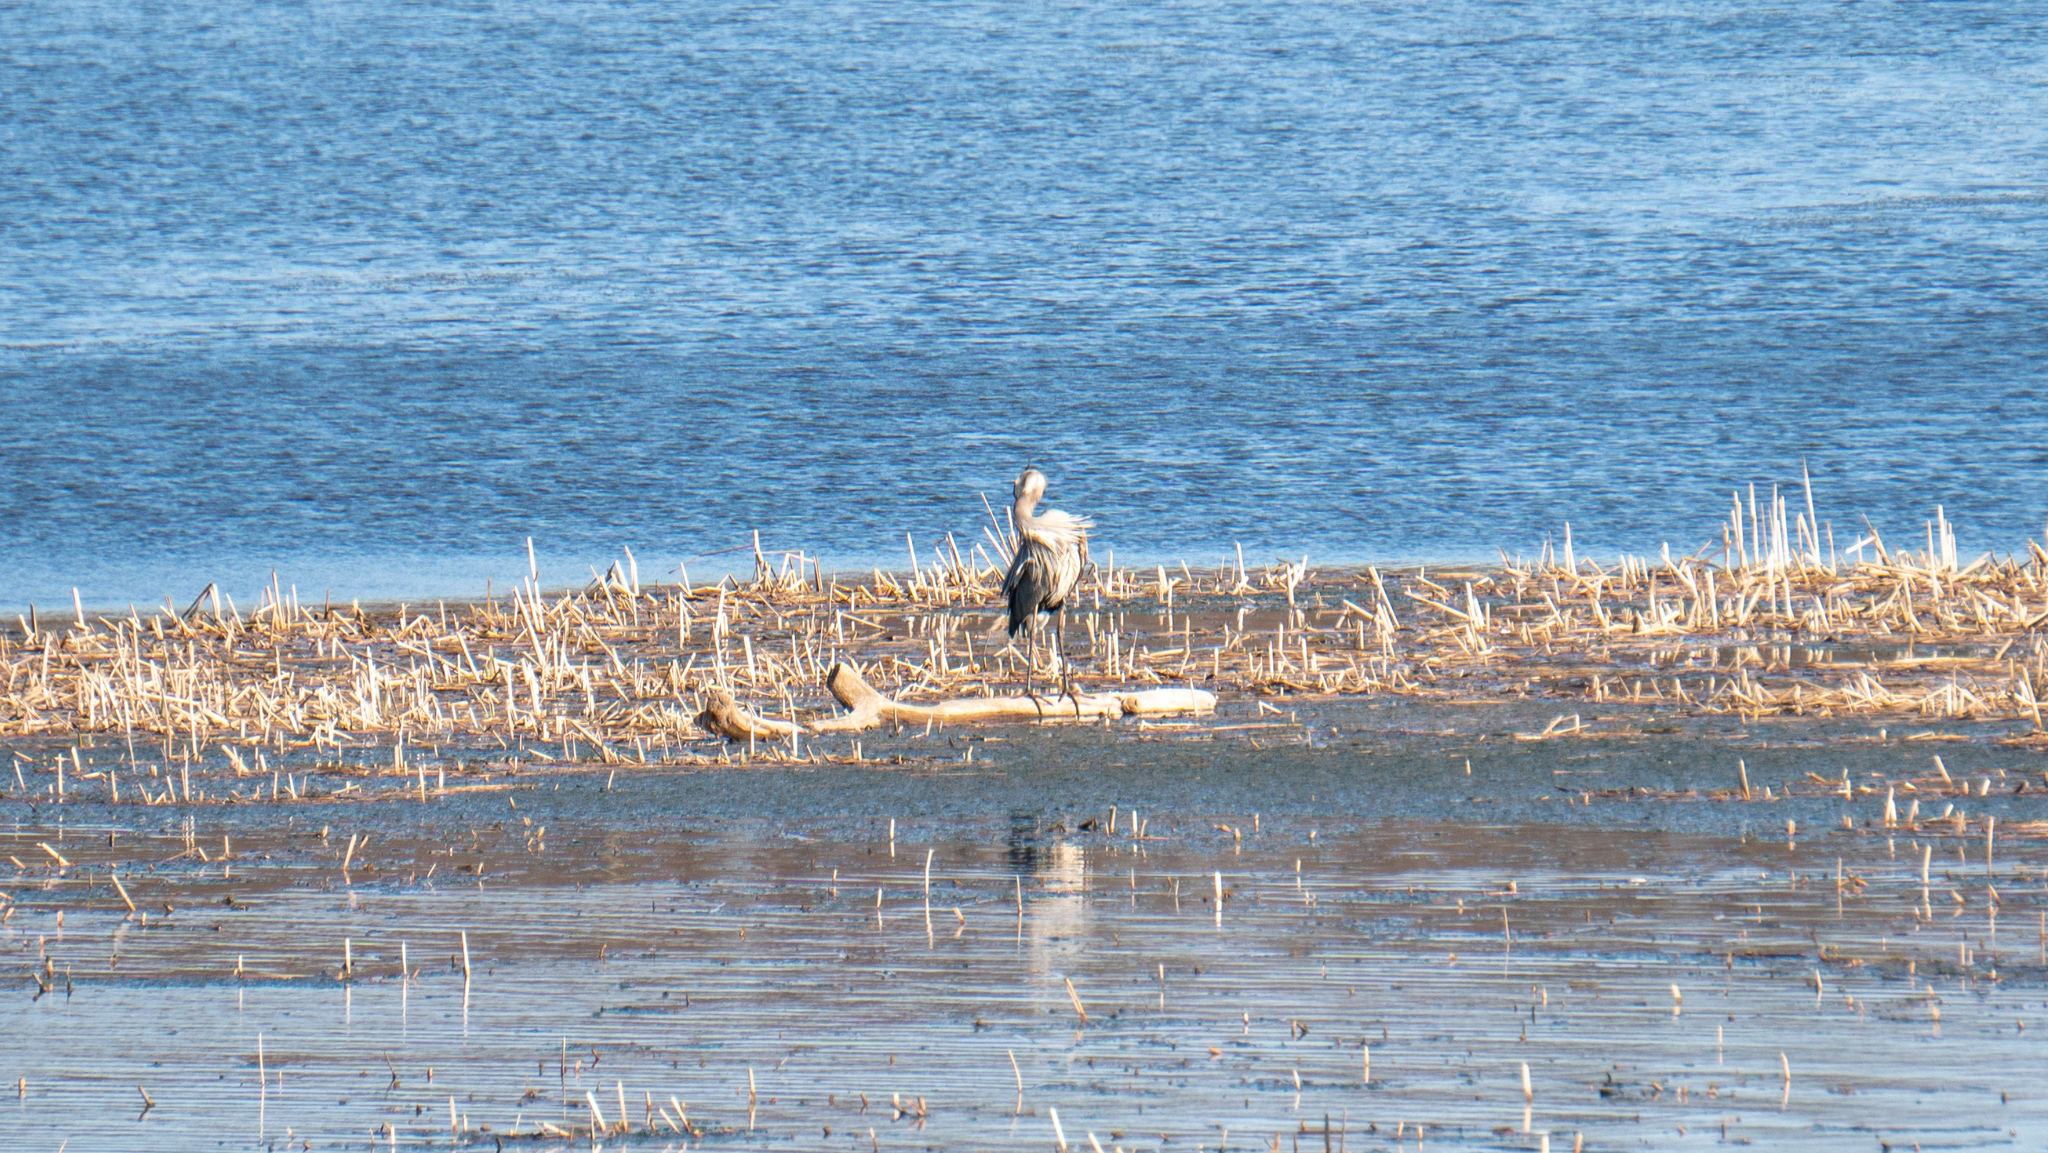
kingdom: Animalia
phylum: Chordata
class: Aves
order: Pelecaniformes
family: Ardeidae
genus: Ardea
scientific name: Ardea herodias
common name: Great blue heron
